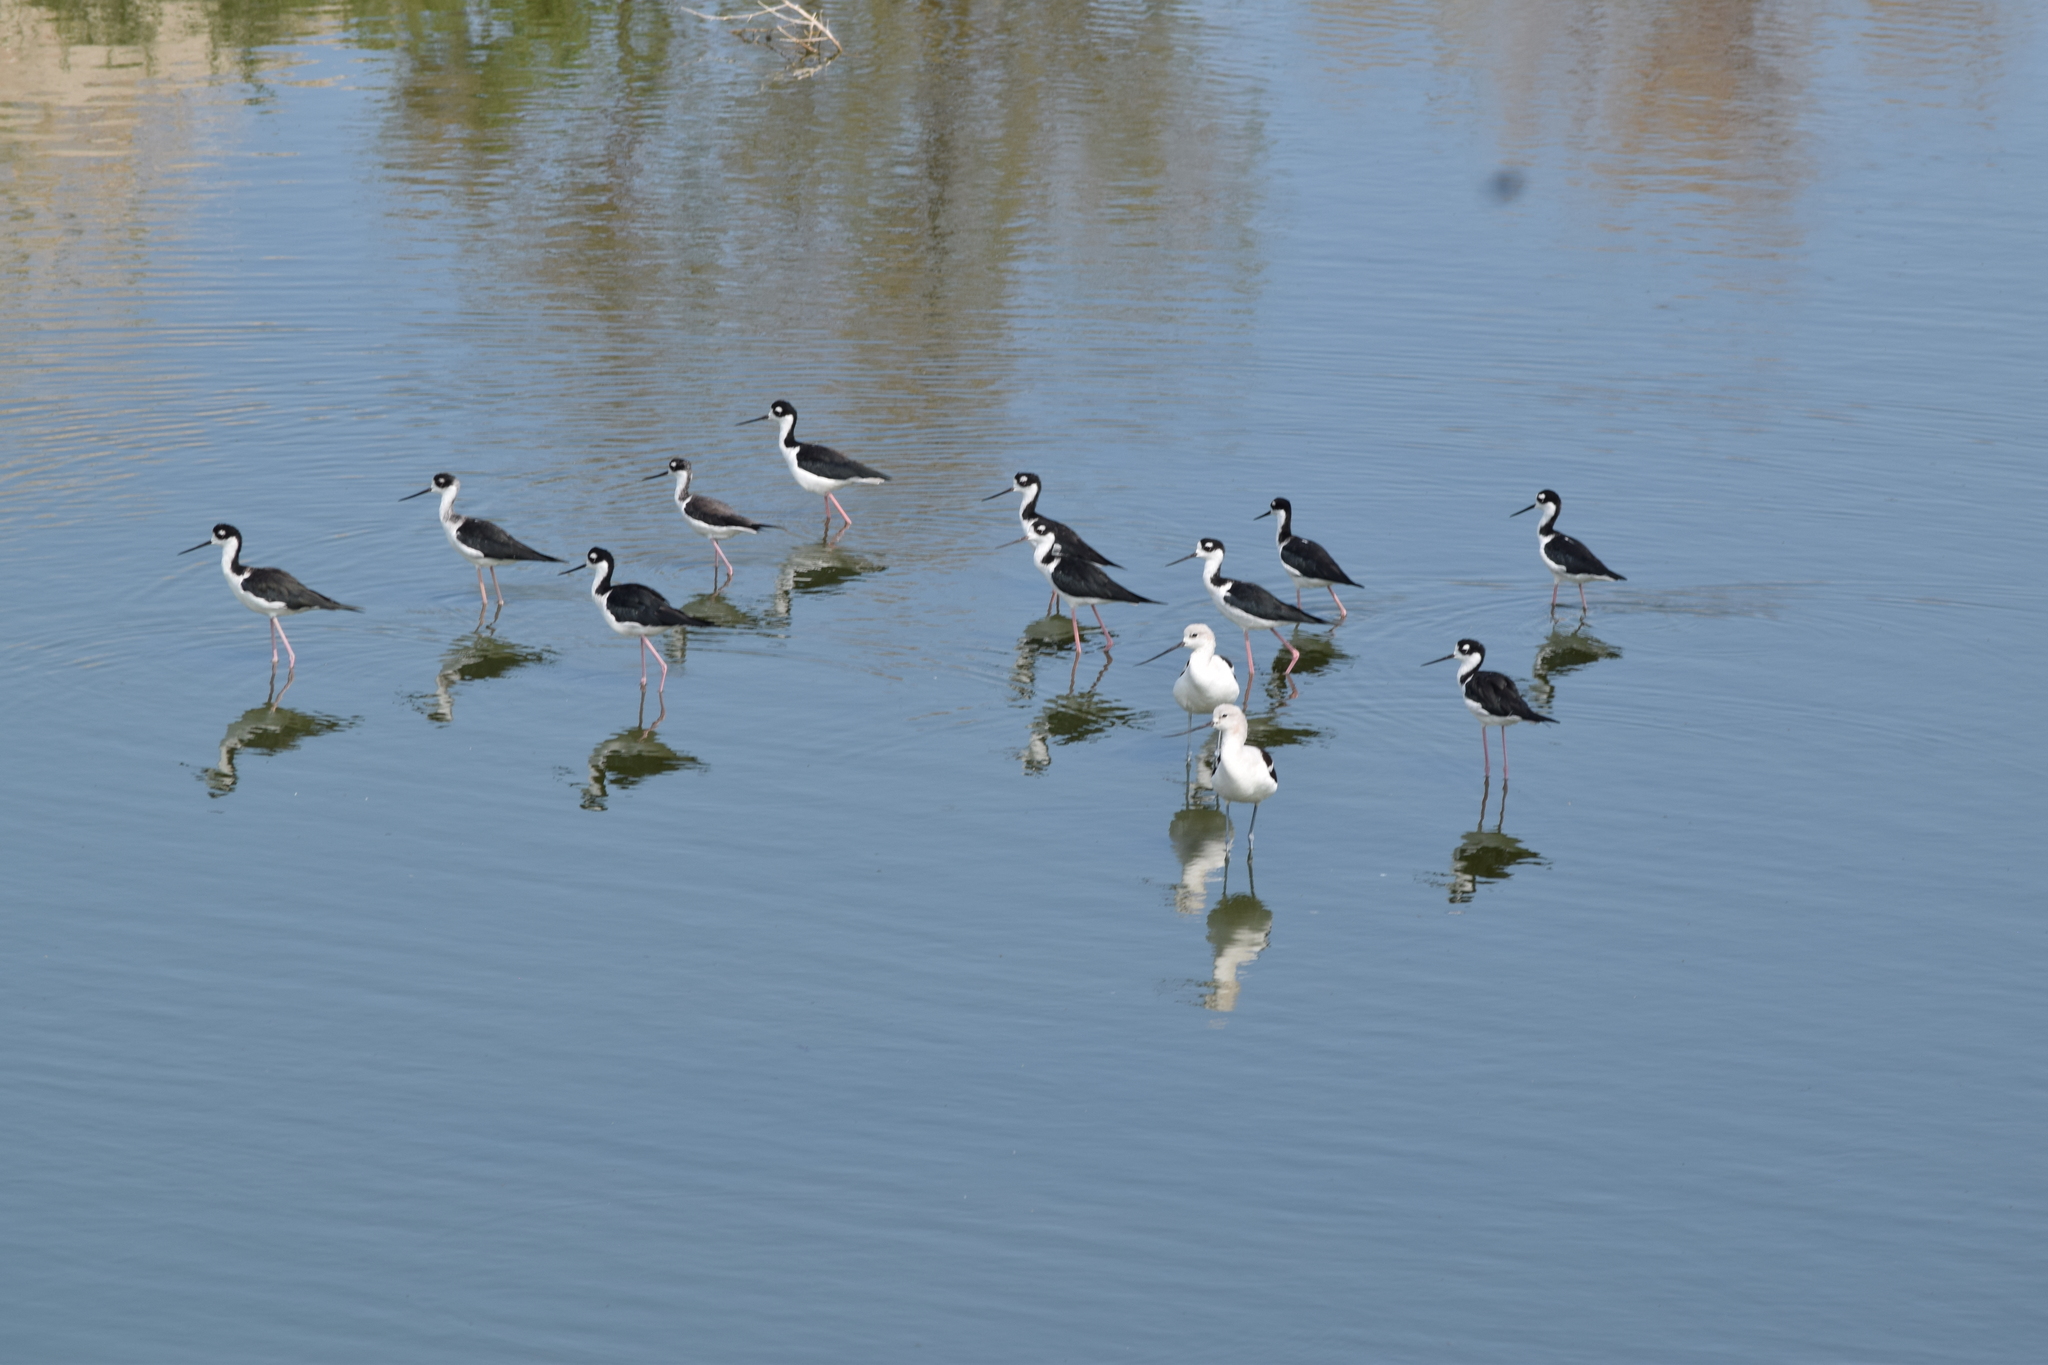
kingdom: Animalia
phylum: Chordata
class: Aves
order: Charadriiformes
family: Recurvirostridae
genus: Recurvirostra
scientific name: Recurvirostra americana
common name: American avocet
